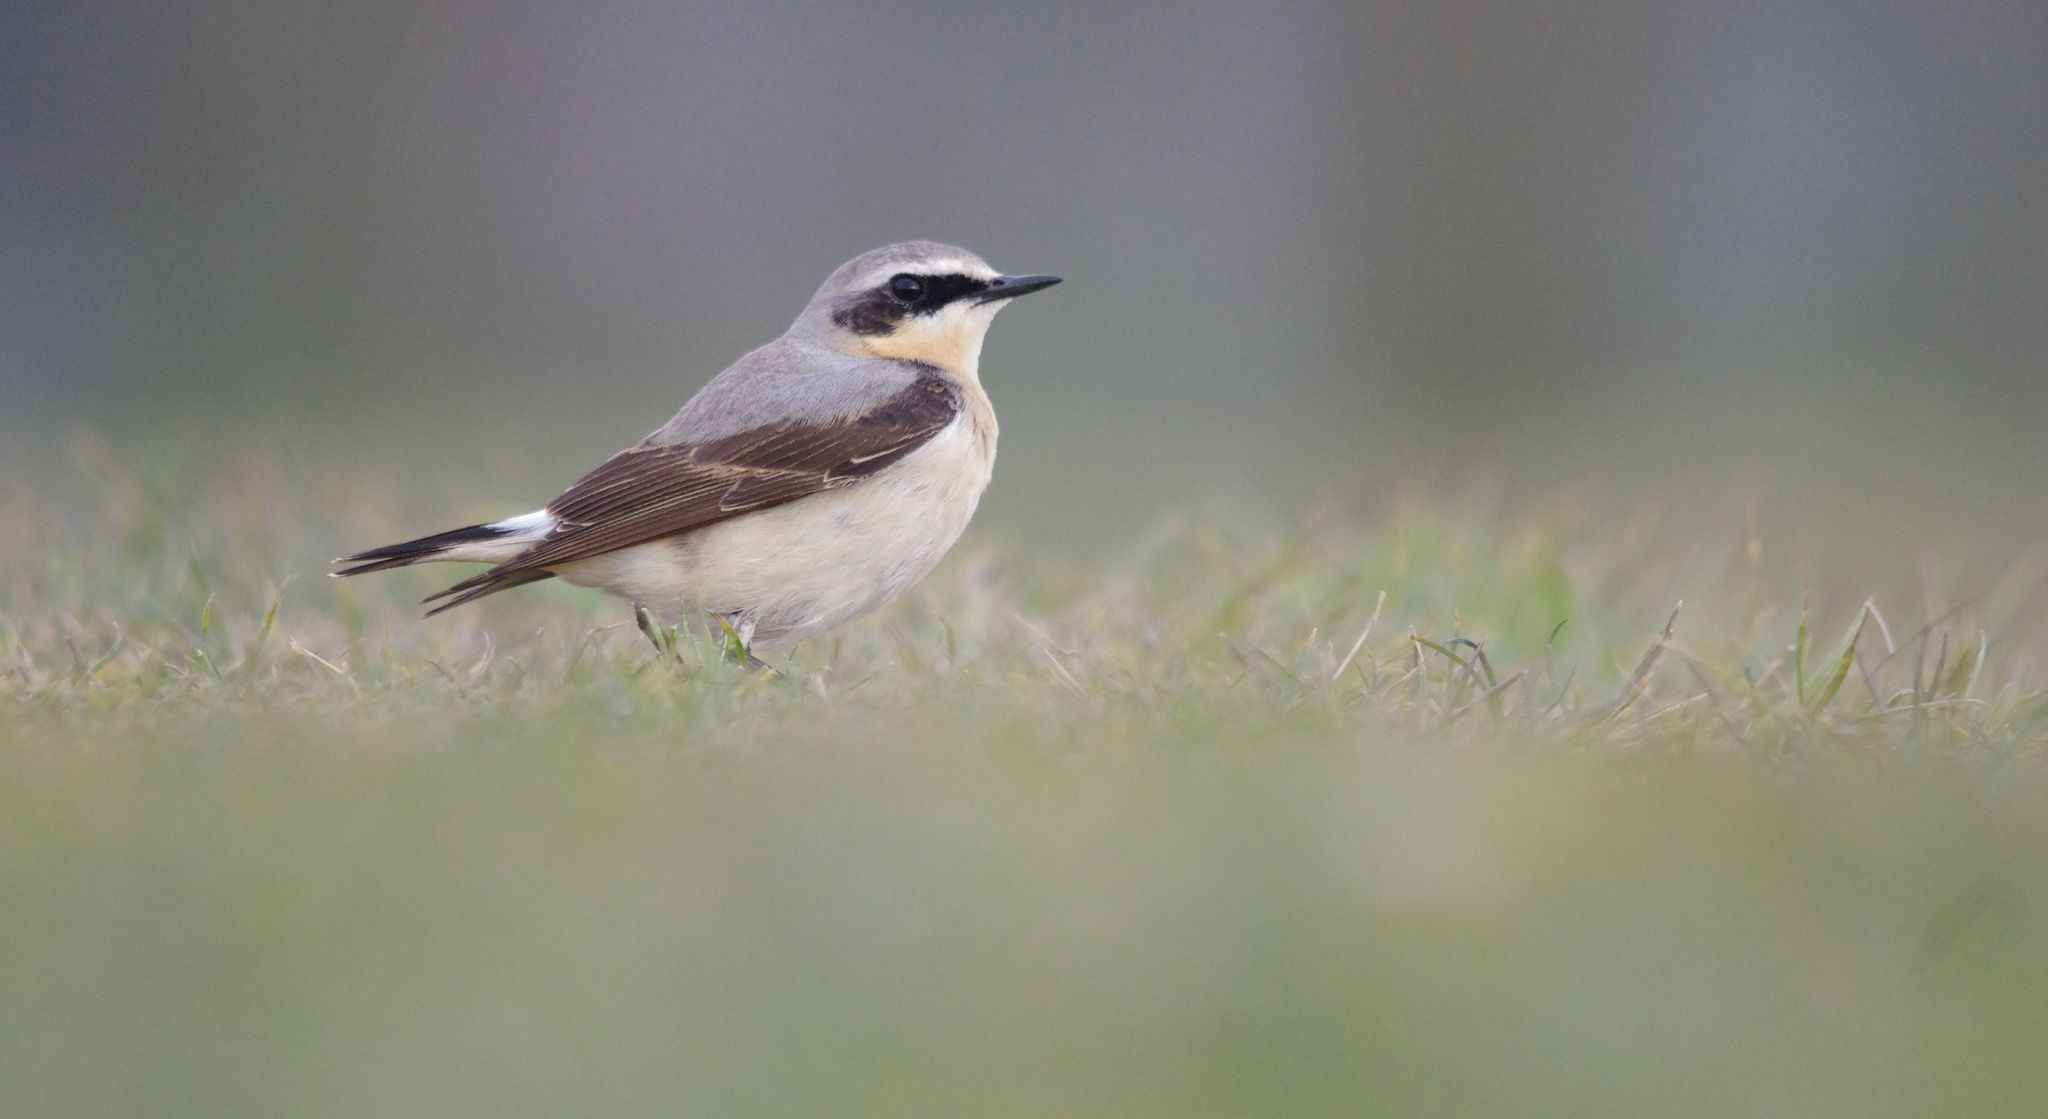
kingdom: Animalia
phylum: Chordata
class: Aves
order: Passeriformes
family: Muscicapidae
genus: Oenanthe
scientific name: Oenanthe oenanthe
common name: Northern wheatear
